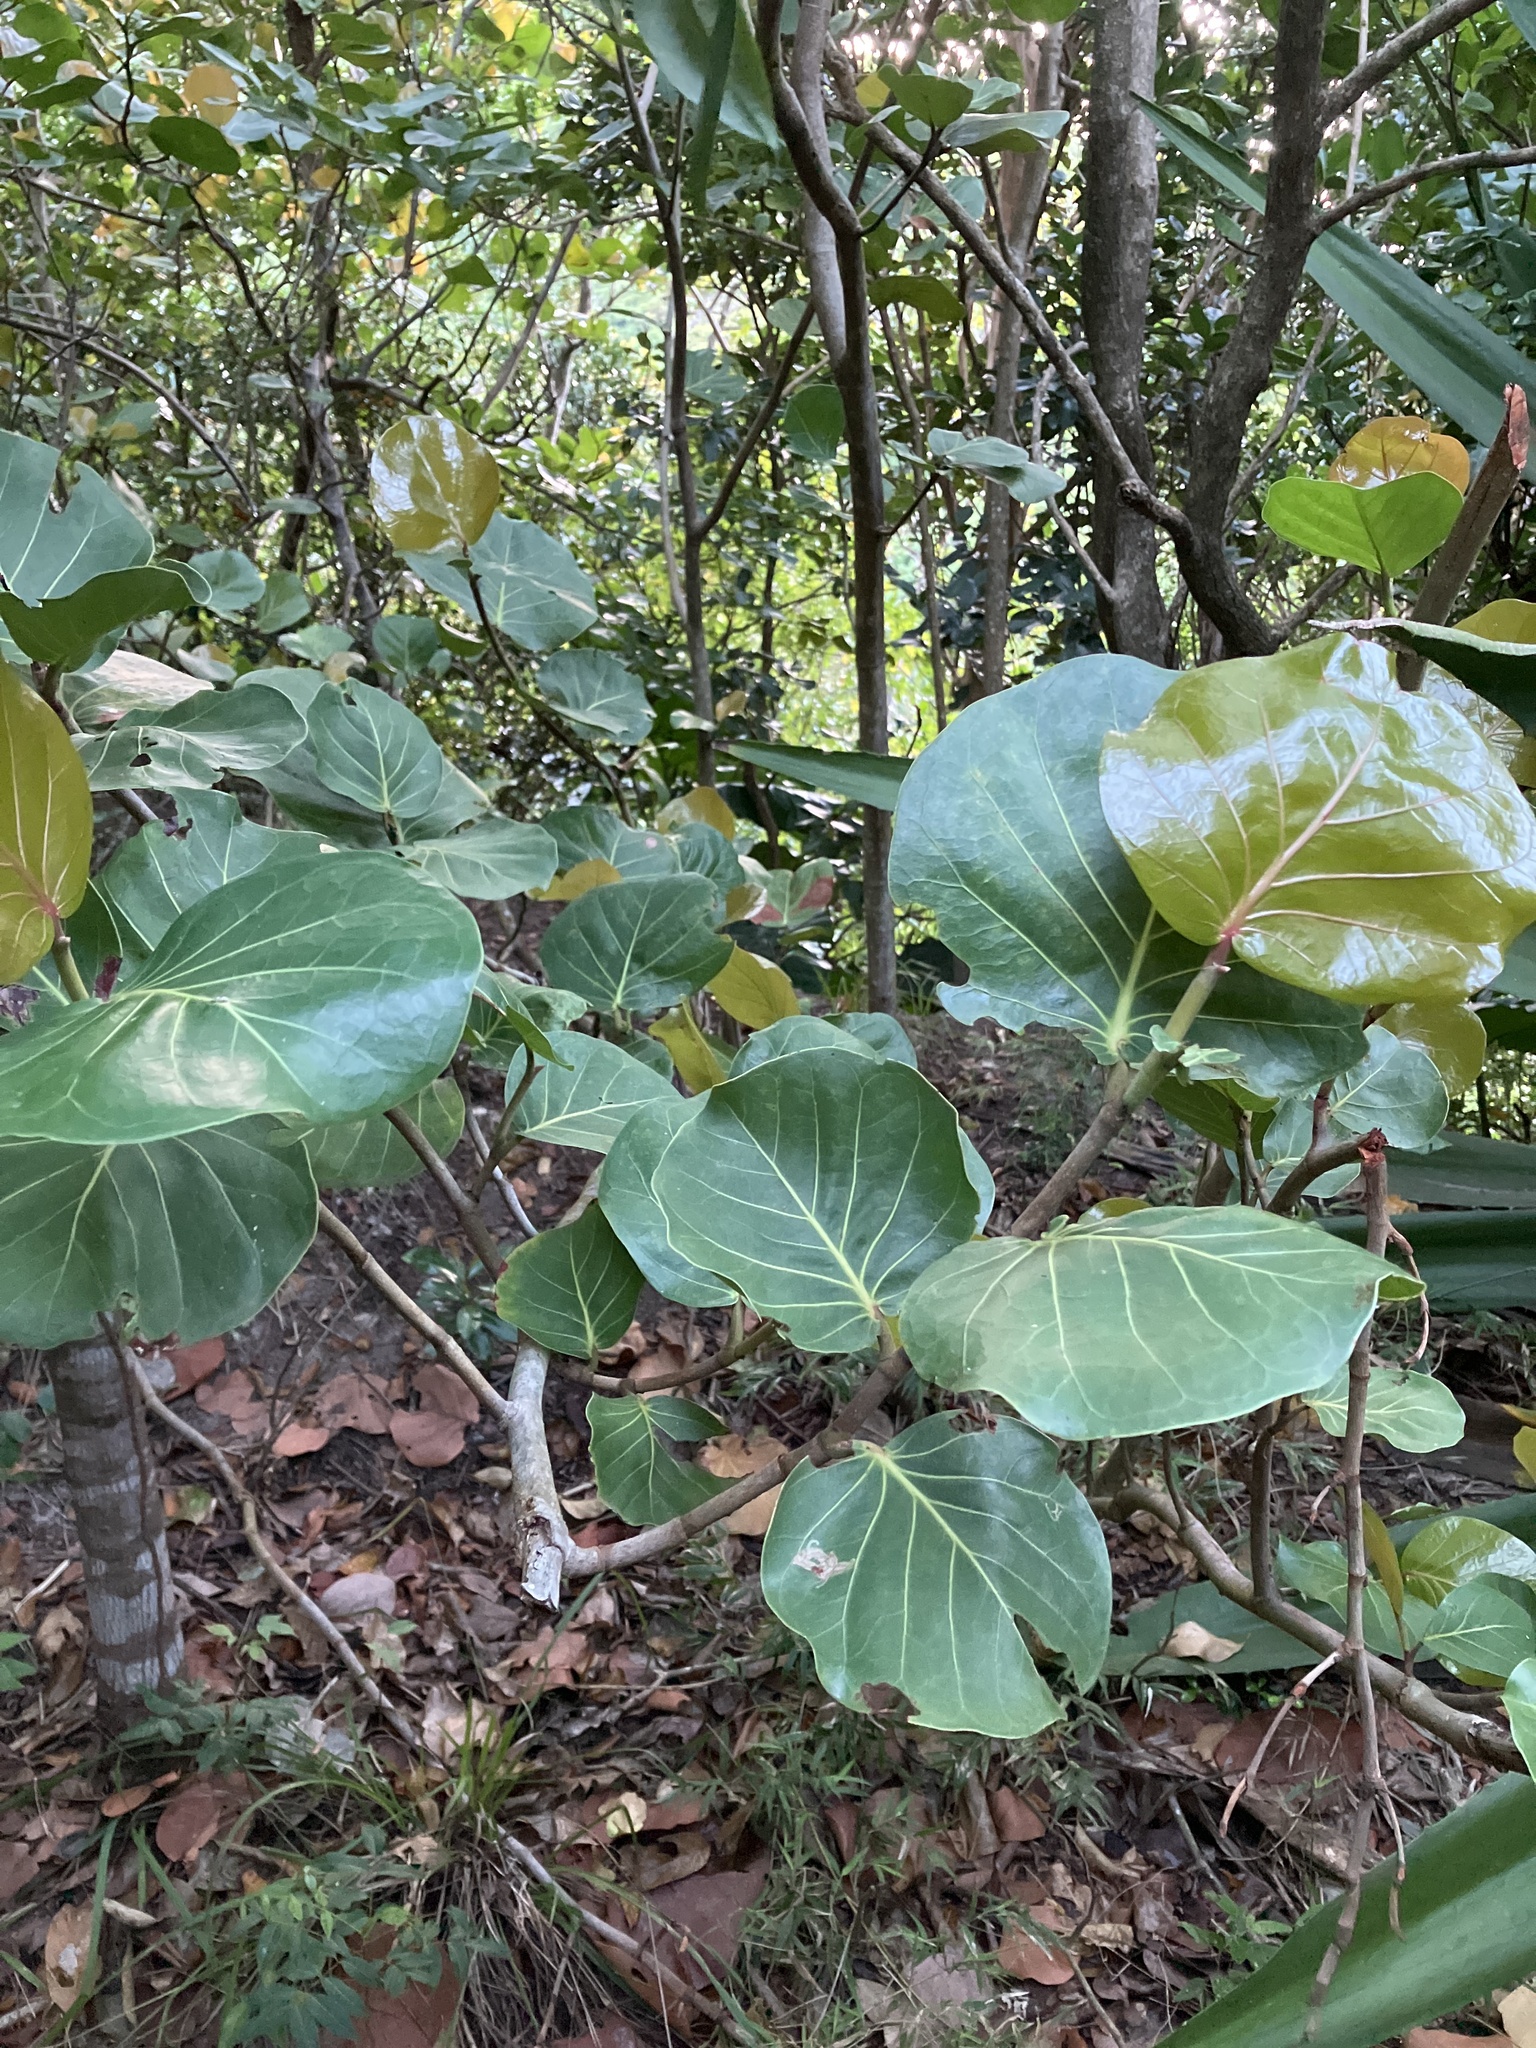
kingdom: Plantae
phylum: Tracheophyta
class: Magnoliopsida
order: Caryophyllales
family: Polygonaceae
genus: Coccoloba
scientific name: Coccoloba uvifera
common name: Seagrape
